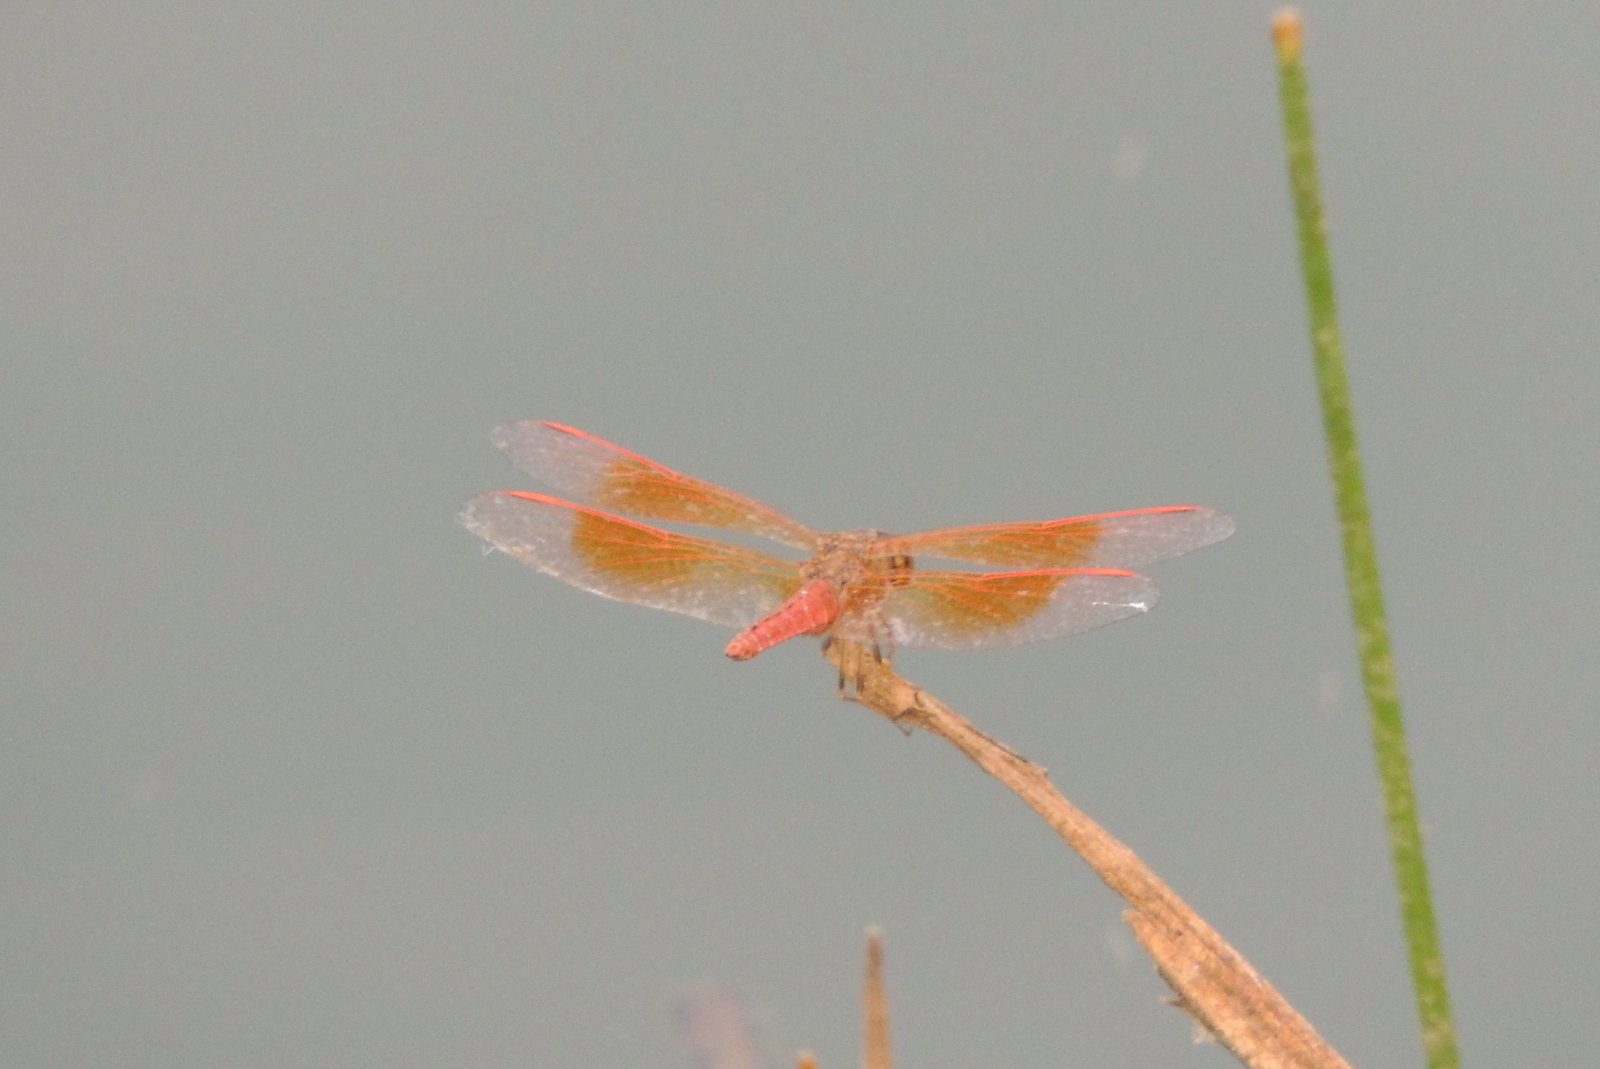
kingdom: Animalia
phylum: Arthropoda
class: Insecta
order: Odonata
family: Libellulidae
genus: Brachythemis
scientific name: Brachythemis contaminata
